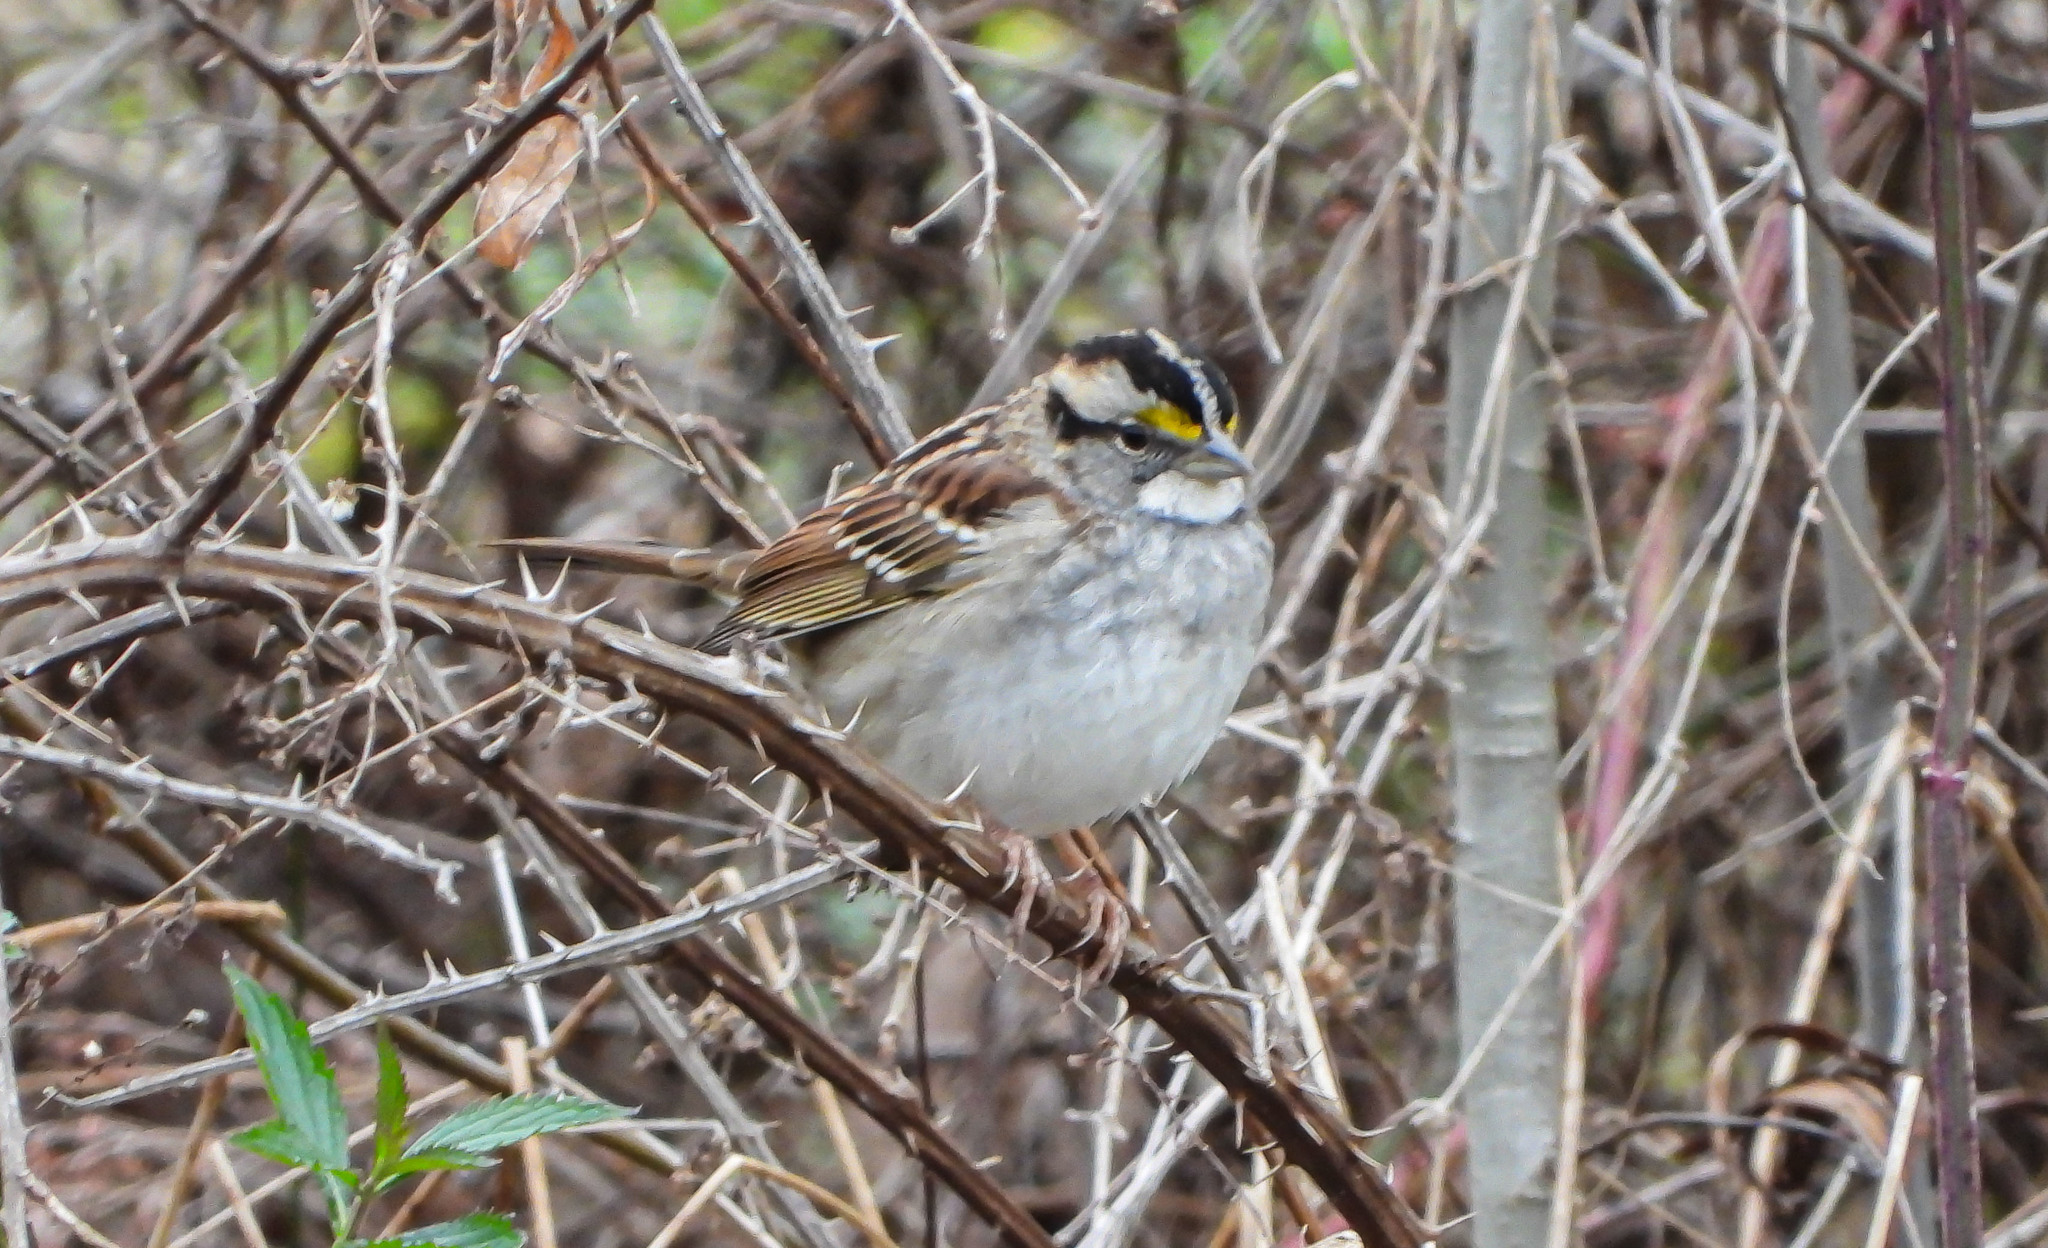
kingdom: Animalia
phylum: Chordata
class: Aves
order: Passeriformes
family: Passerellidae
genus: Zonotrichia
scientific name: Zonotrichia albicollis
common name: White-throated sparrow
